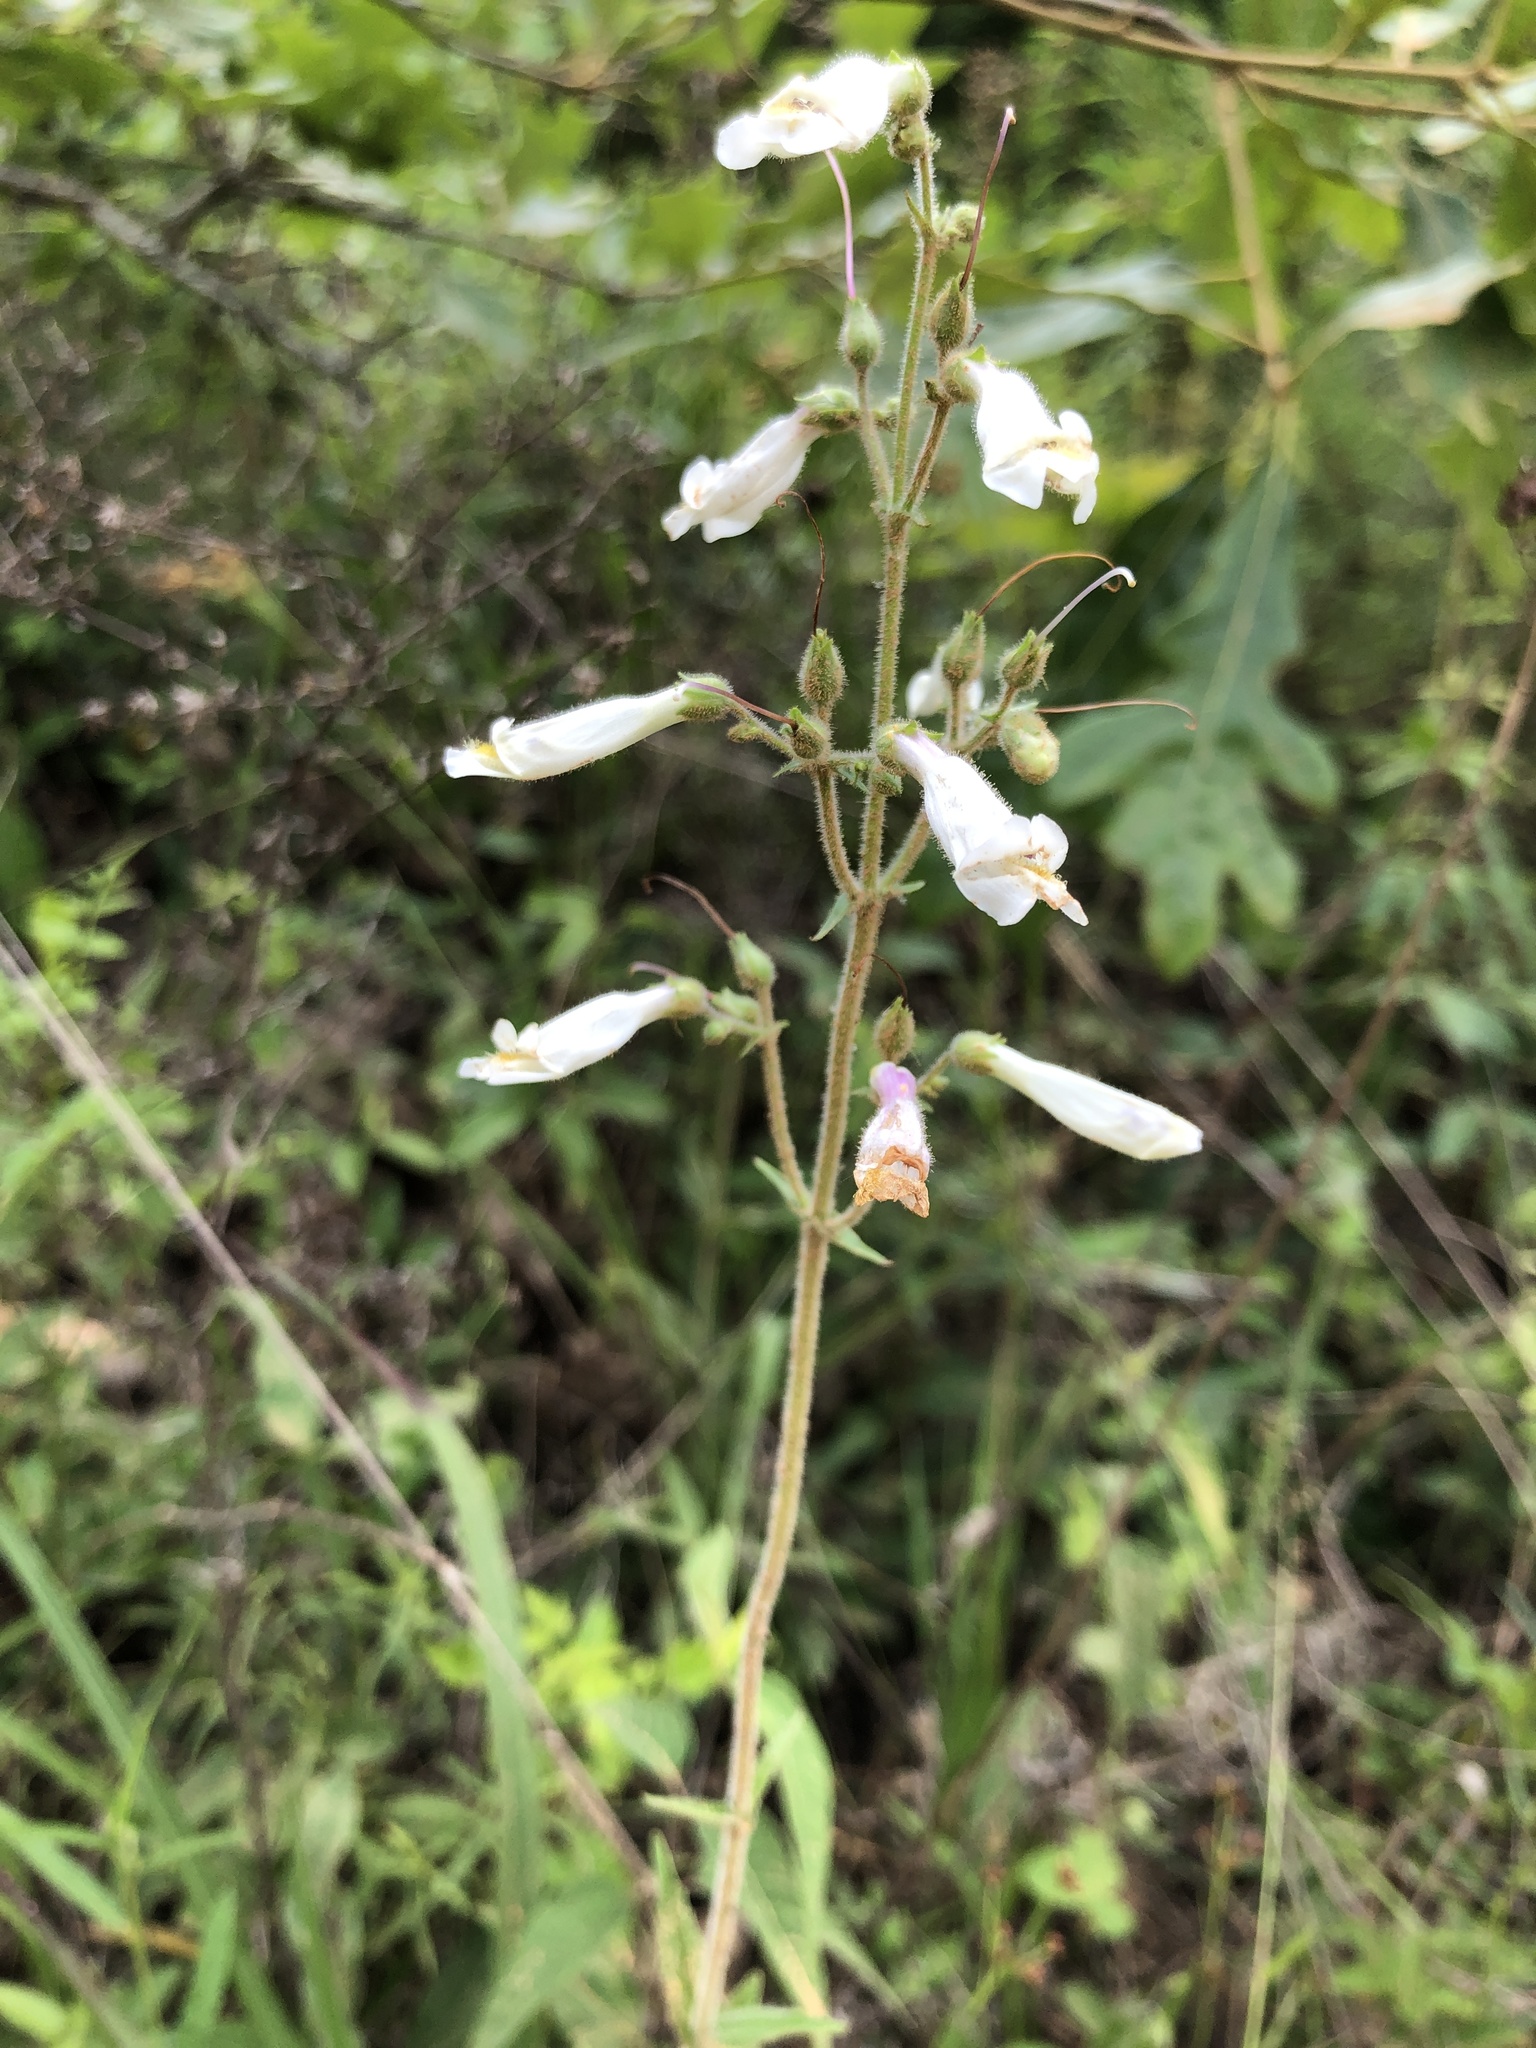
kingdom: Plantae
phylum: Tracheophyta
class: Magnoliopsida
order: Lamiales
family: Plantaginaceae
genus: Penstemon
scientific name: Penstemon tenuiflorus
